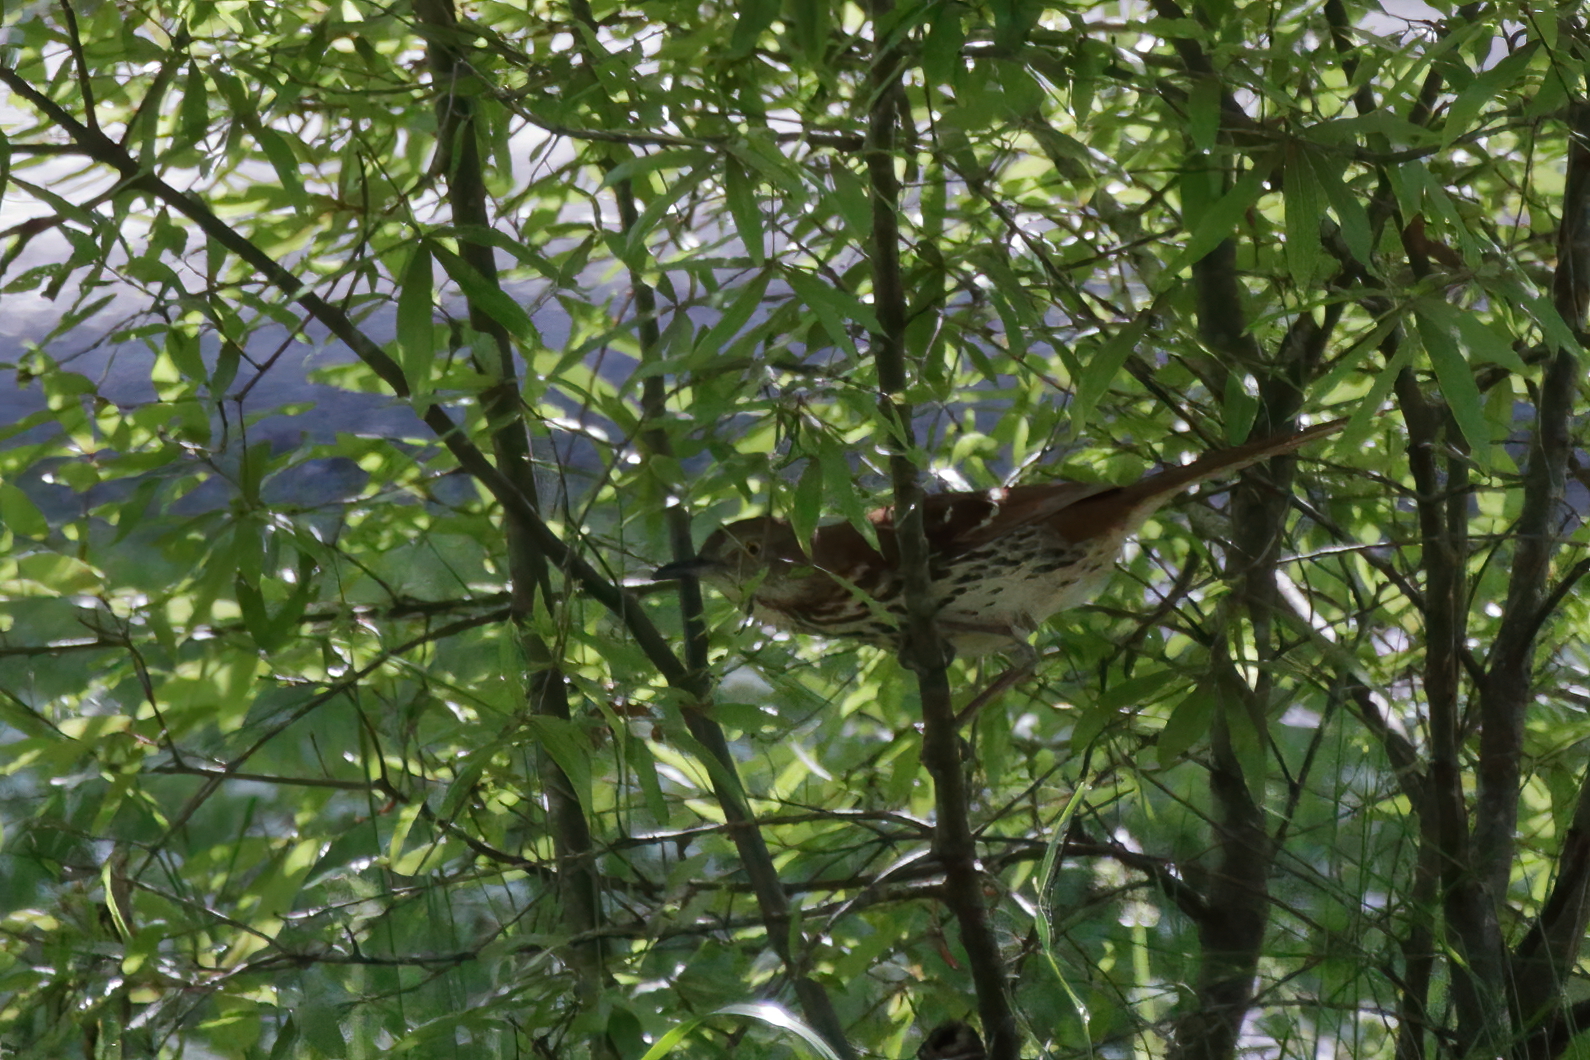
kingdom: Animalia
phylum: Chordata
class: Aves
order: Passeriformes
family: Mimidae
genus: Toxostoma
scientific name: Toxostoma rufum
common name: Brown thrasher
